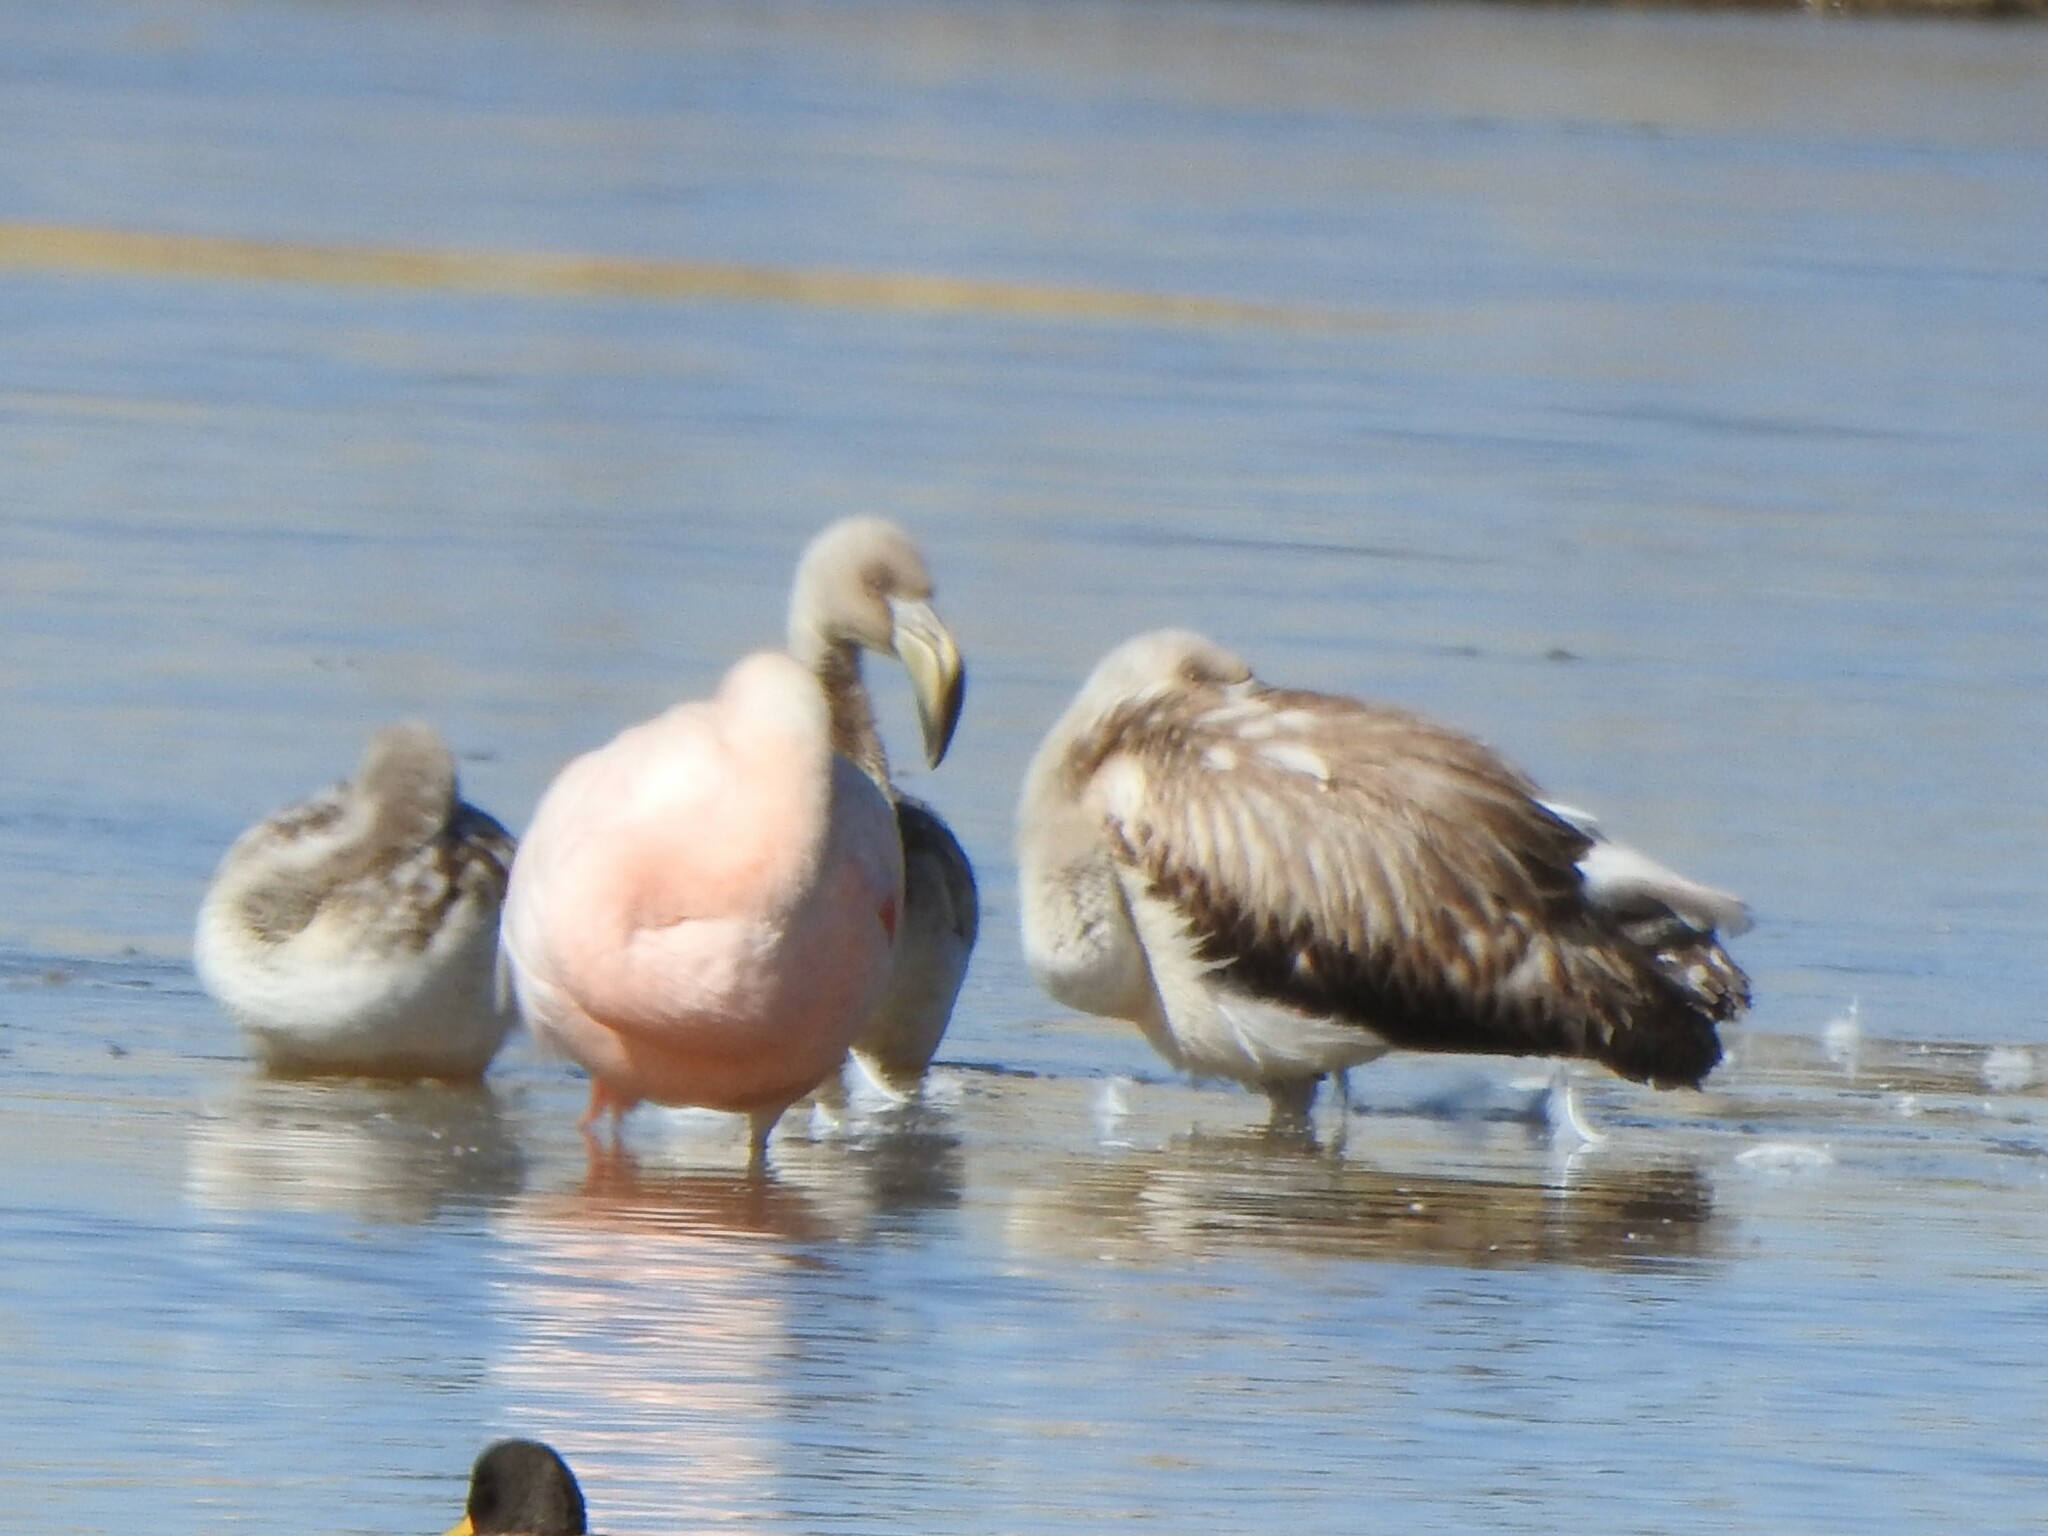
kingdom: Animalia
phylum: Chordata
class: Aves
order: Phoenicopteriformes
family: Phoenicopteridae
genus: Phoenicopterus
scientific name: Phoenicopterus chilensis
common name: Chilean flamingo
